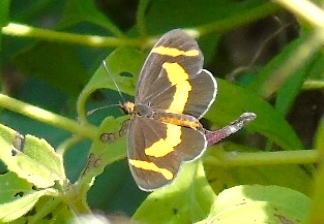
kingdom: Animalia
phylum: Arthropoda
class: Insecta
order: Lepidoptera
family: Nymphalidae
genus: Microtia
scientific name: Microtia elva
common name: Elf
